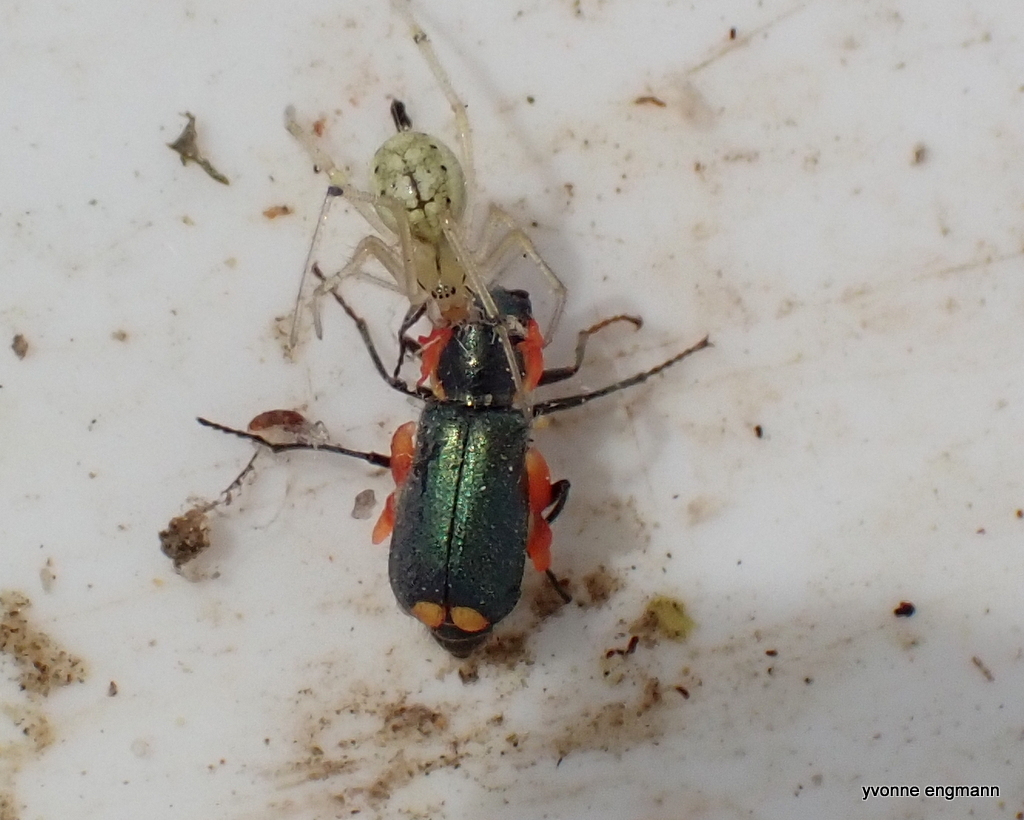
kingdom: Animalia
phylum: Arthropoda
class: Arachnida
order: Araneae
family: Theridiidae
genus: Enoplognatha
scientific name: Enoplognatha ovata
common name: Common candy-striped spider
